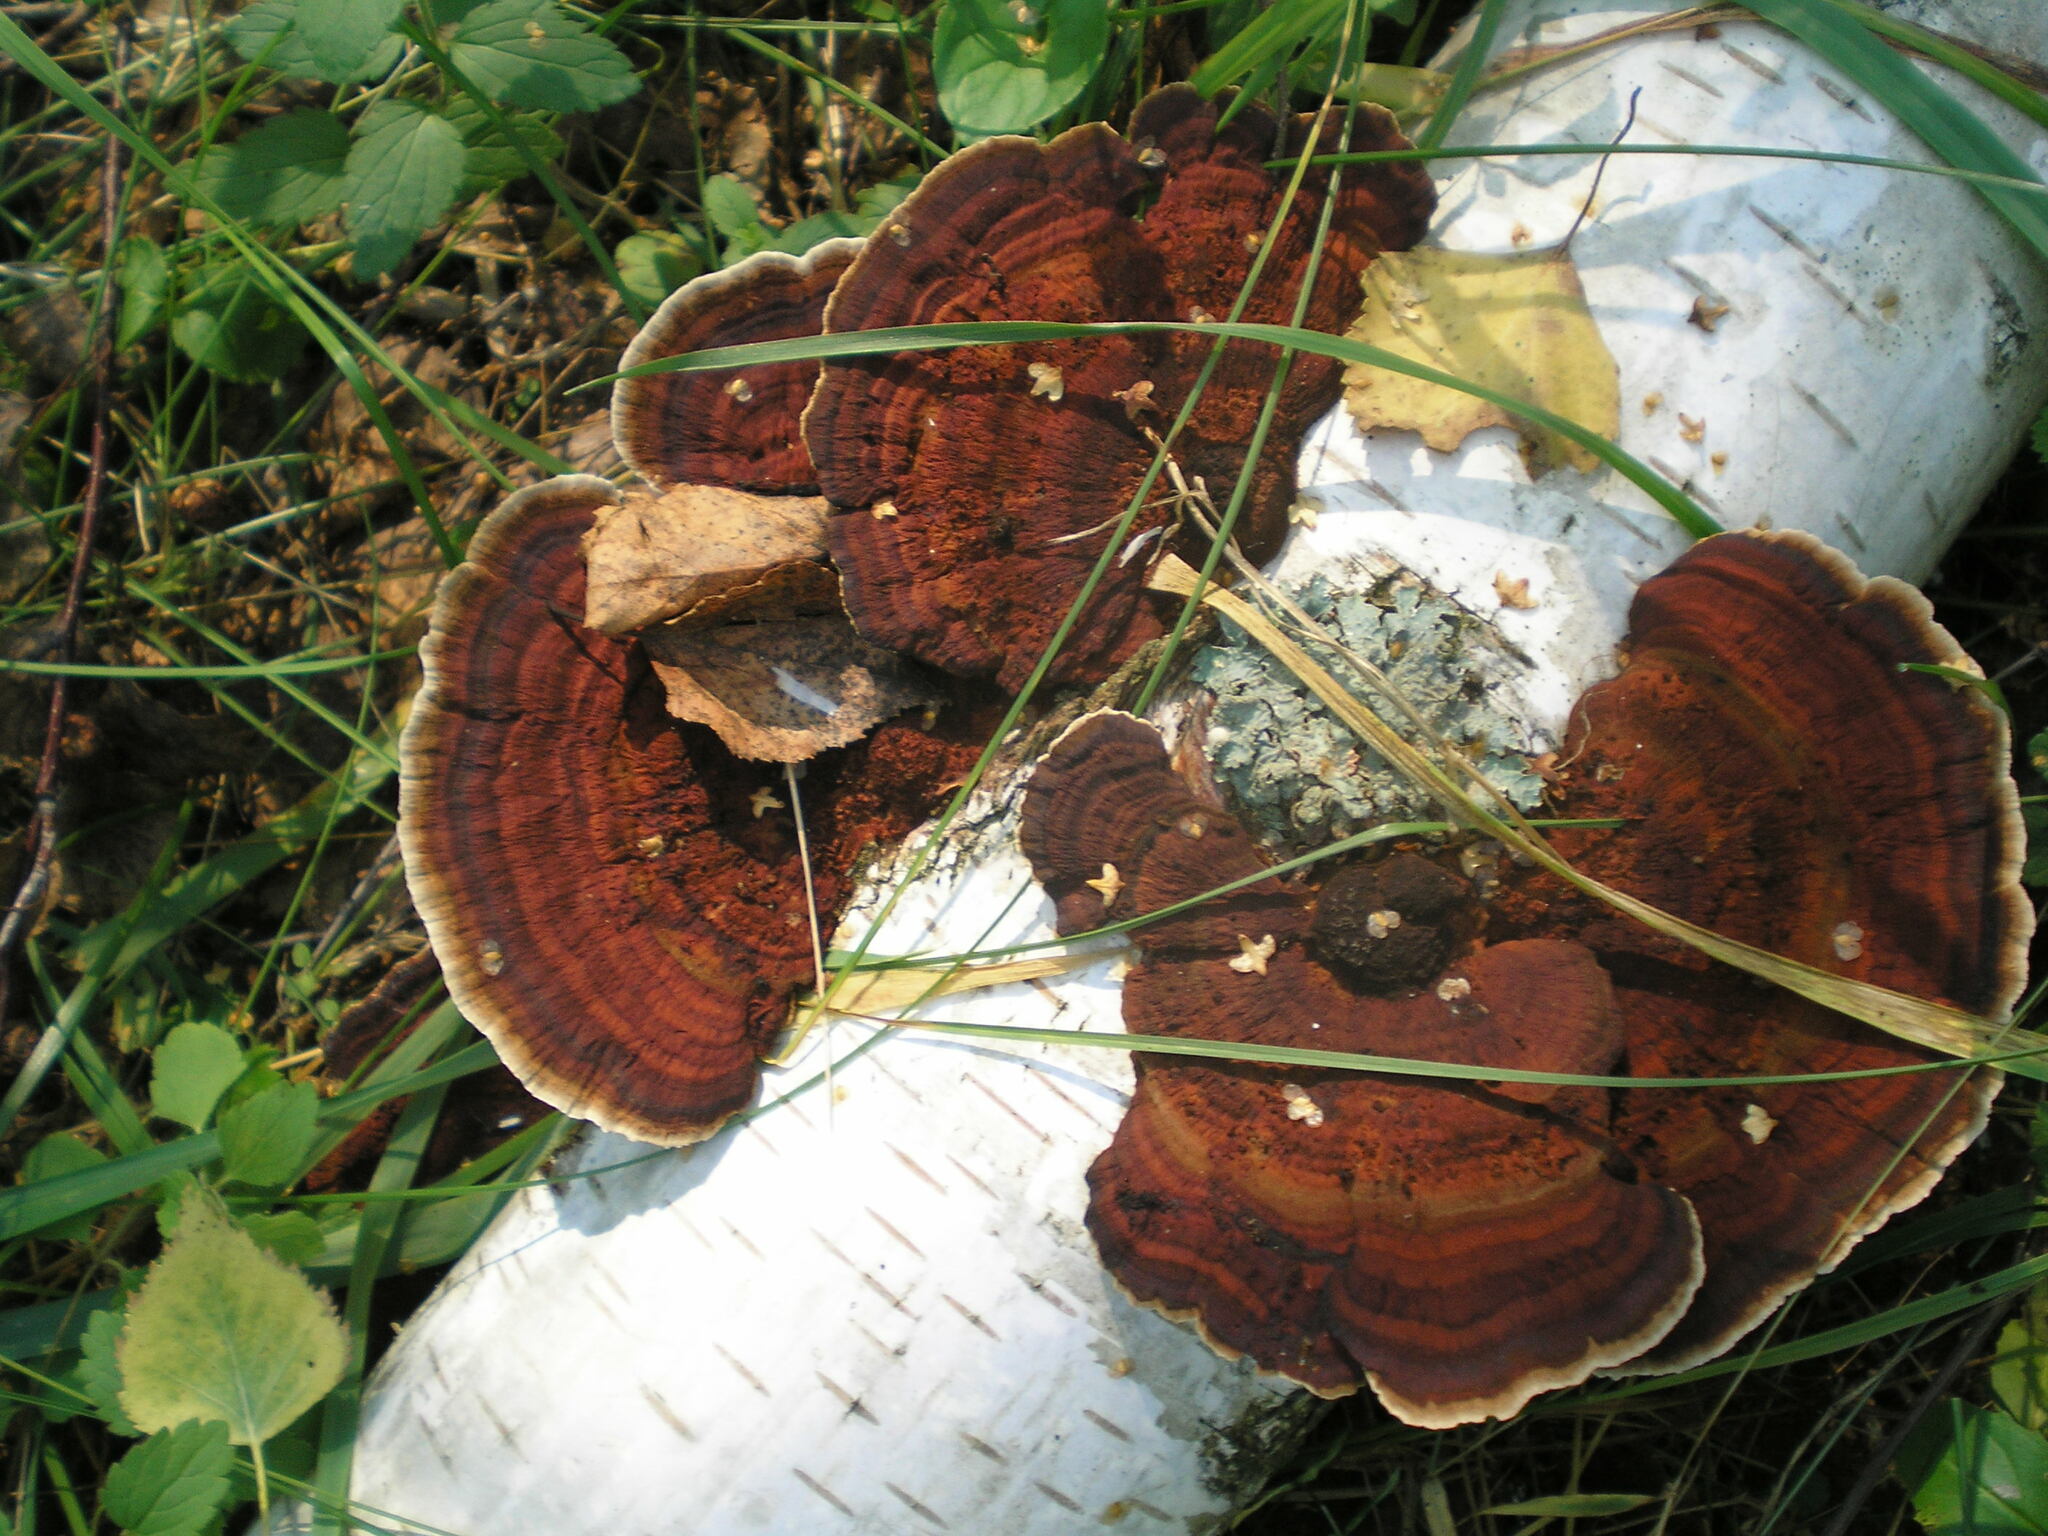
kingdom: Fungi
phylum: Basidiomycota
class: Agaricomycetes
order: Polyporales
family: Polyporaceae
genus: Daedaleopsis
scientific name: Daedaleopsis tricolor
